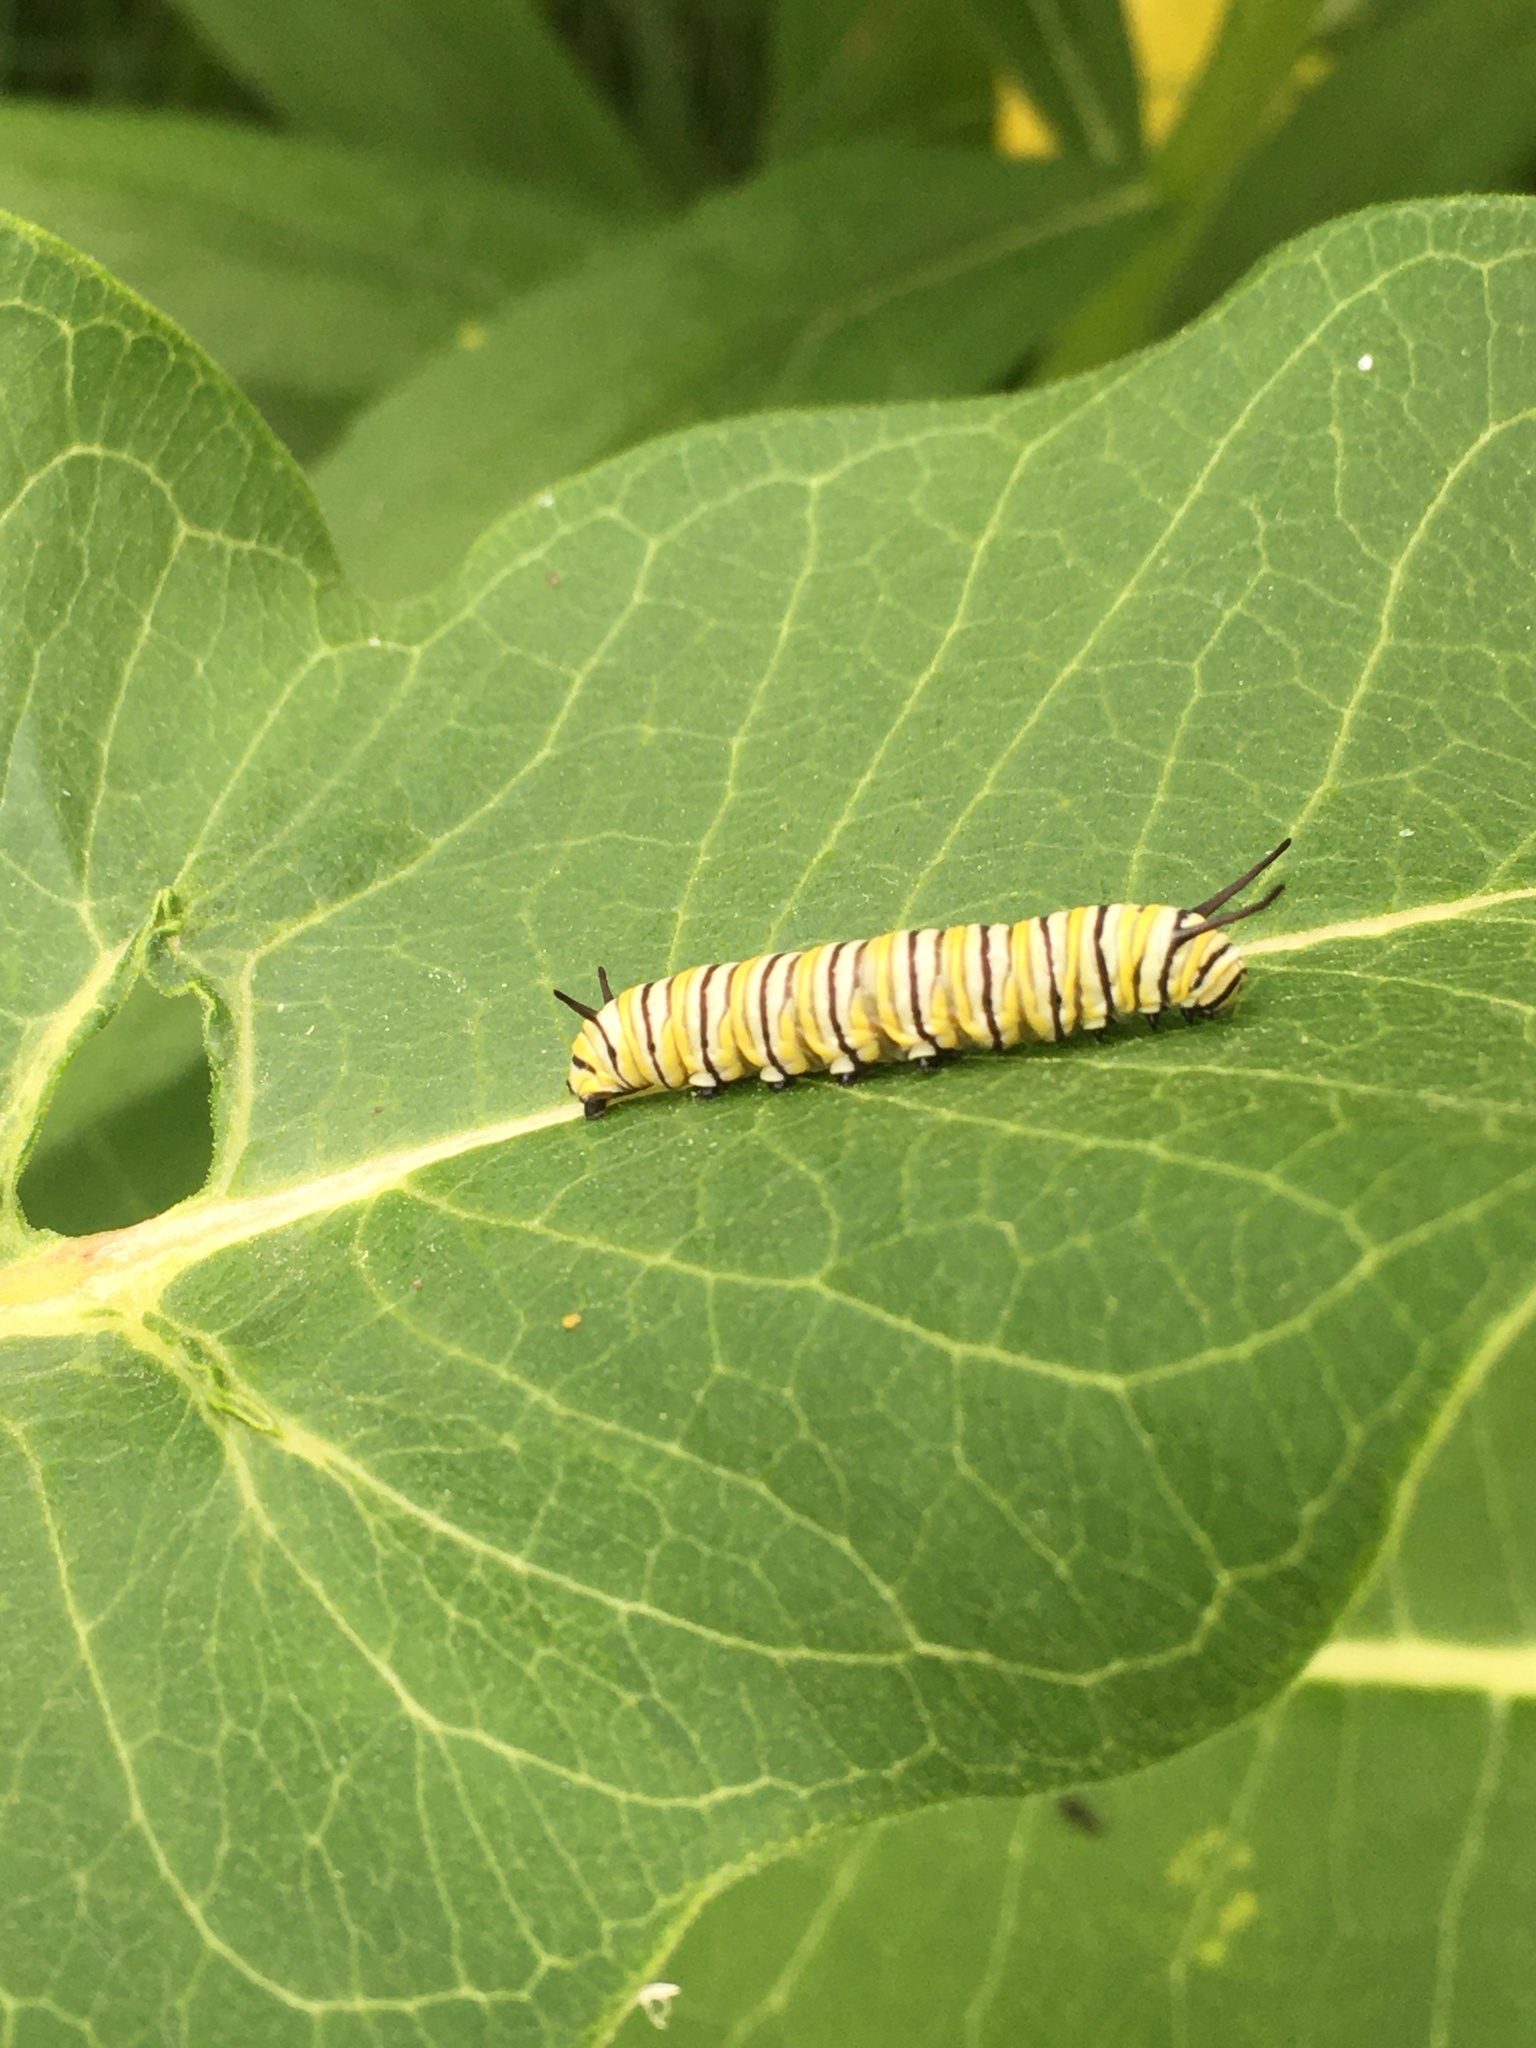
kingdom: Animalia
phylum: Arthropoda
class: Insecta
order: Lepidoptera
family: Nymphalidae
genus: Danaus
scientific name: Danaus plexippus
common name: Monarch
